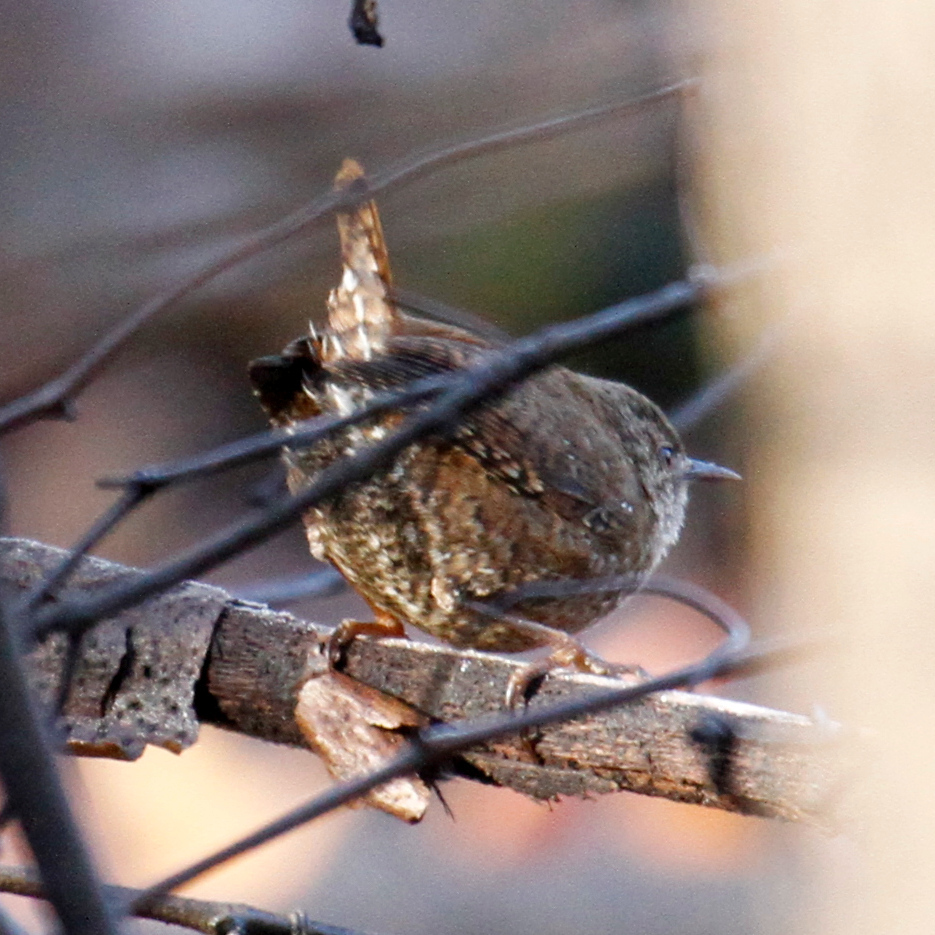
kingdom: Animalia
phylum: Chordata
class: Aves
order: Passeriformes
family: Troglodytidae
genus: Troglodytes
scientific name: Troglodytes hiemalis
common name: Winter wren
